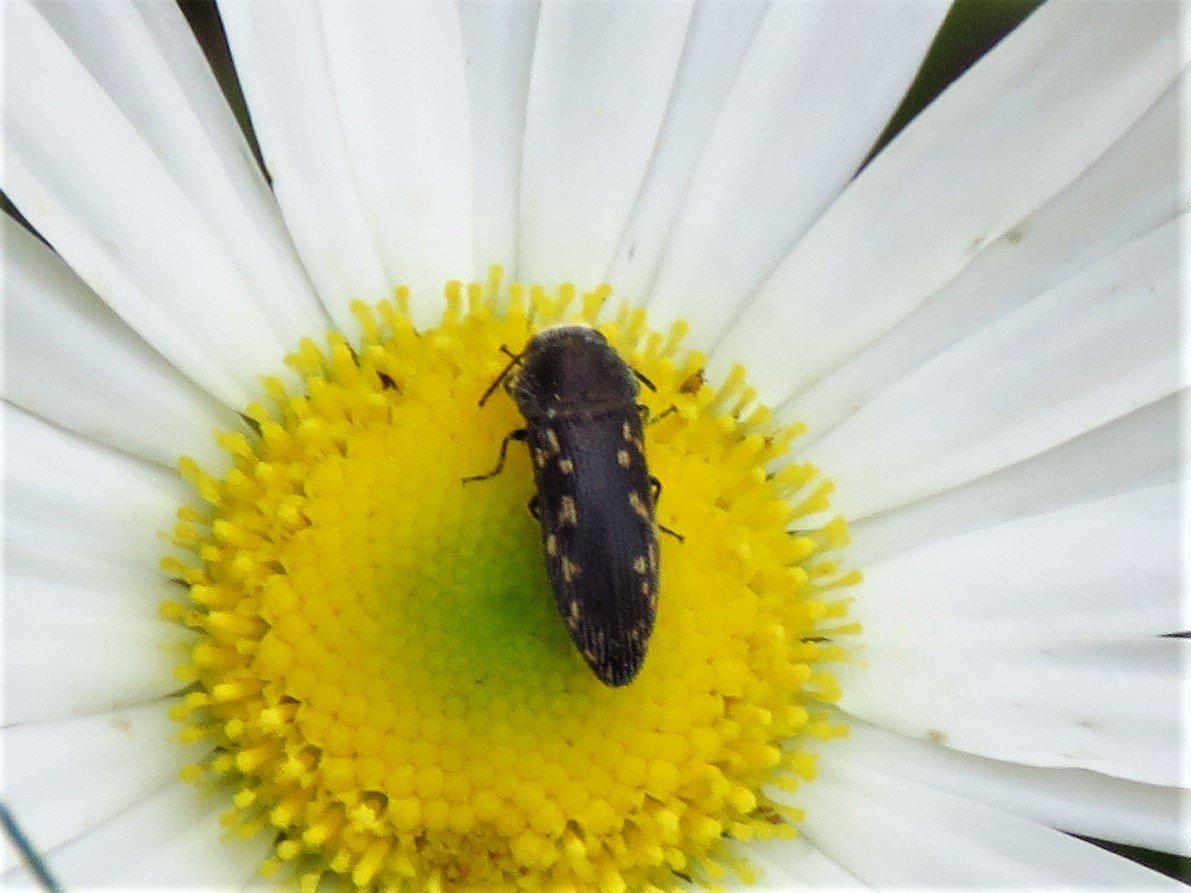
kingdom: Animalia
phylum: Arthropoda
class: Insecta
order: Coleoptera
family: Buprestidae
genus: Acmaeodera
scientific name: Acmaeodera tubulus
